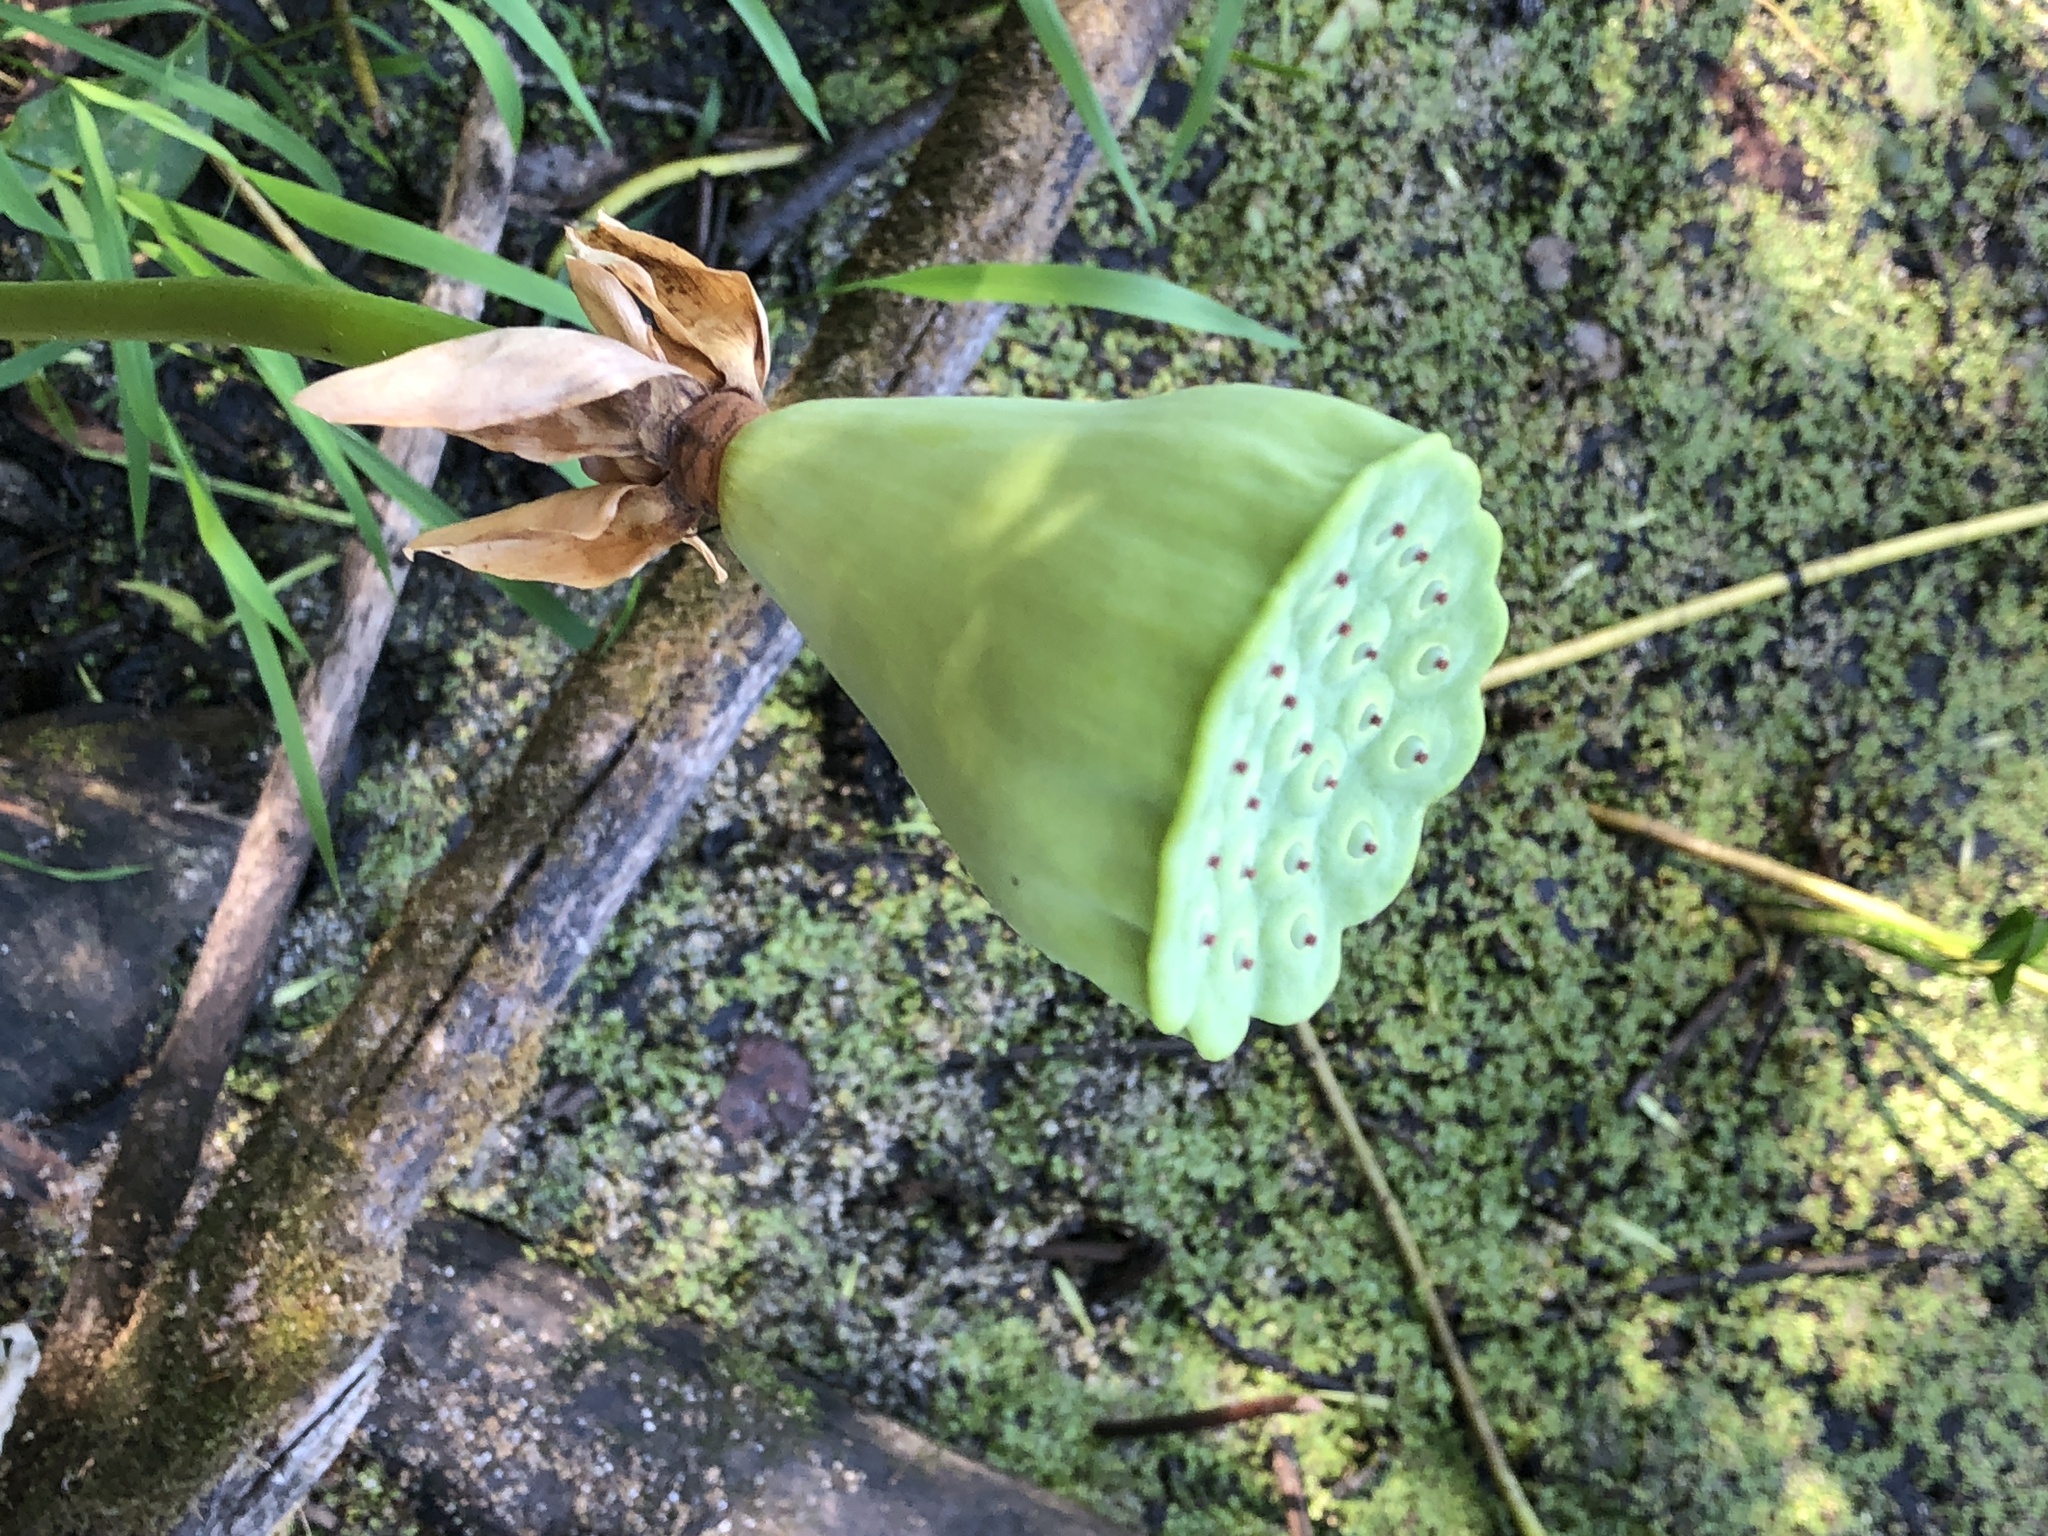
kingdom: Plantae
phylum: Tracheophyta
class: Magnoliopsida
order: Proteales
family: Nelumbonaceae
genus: Nelumbo
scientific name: Nelumbo lutea
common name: American lotus
